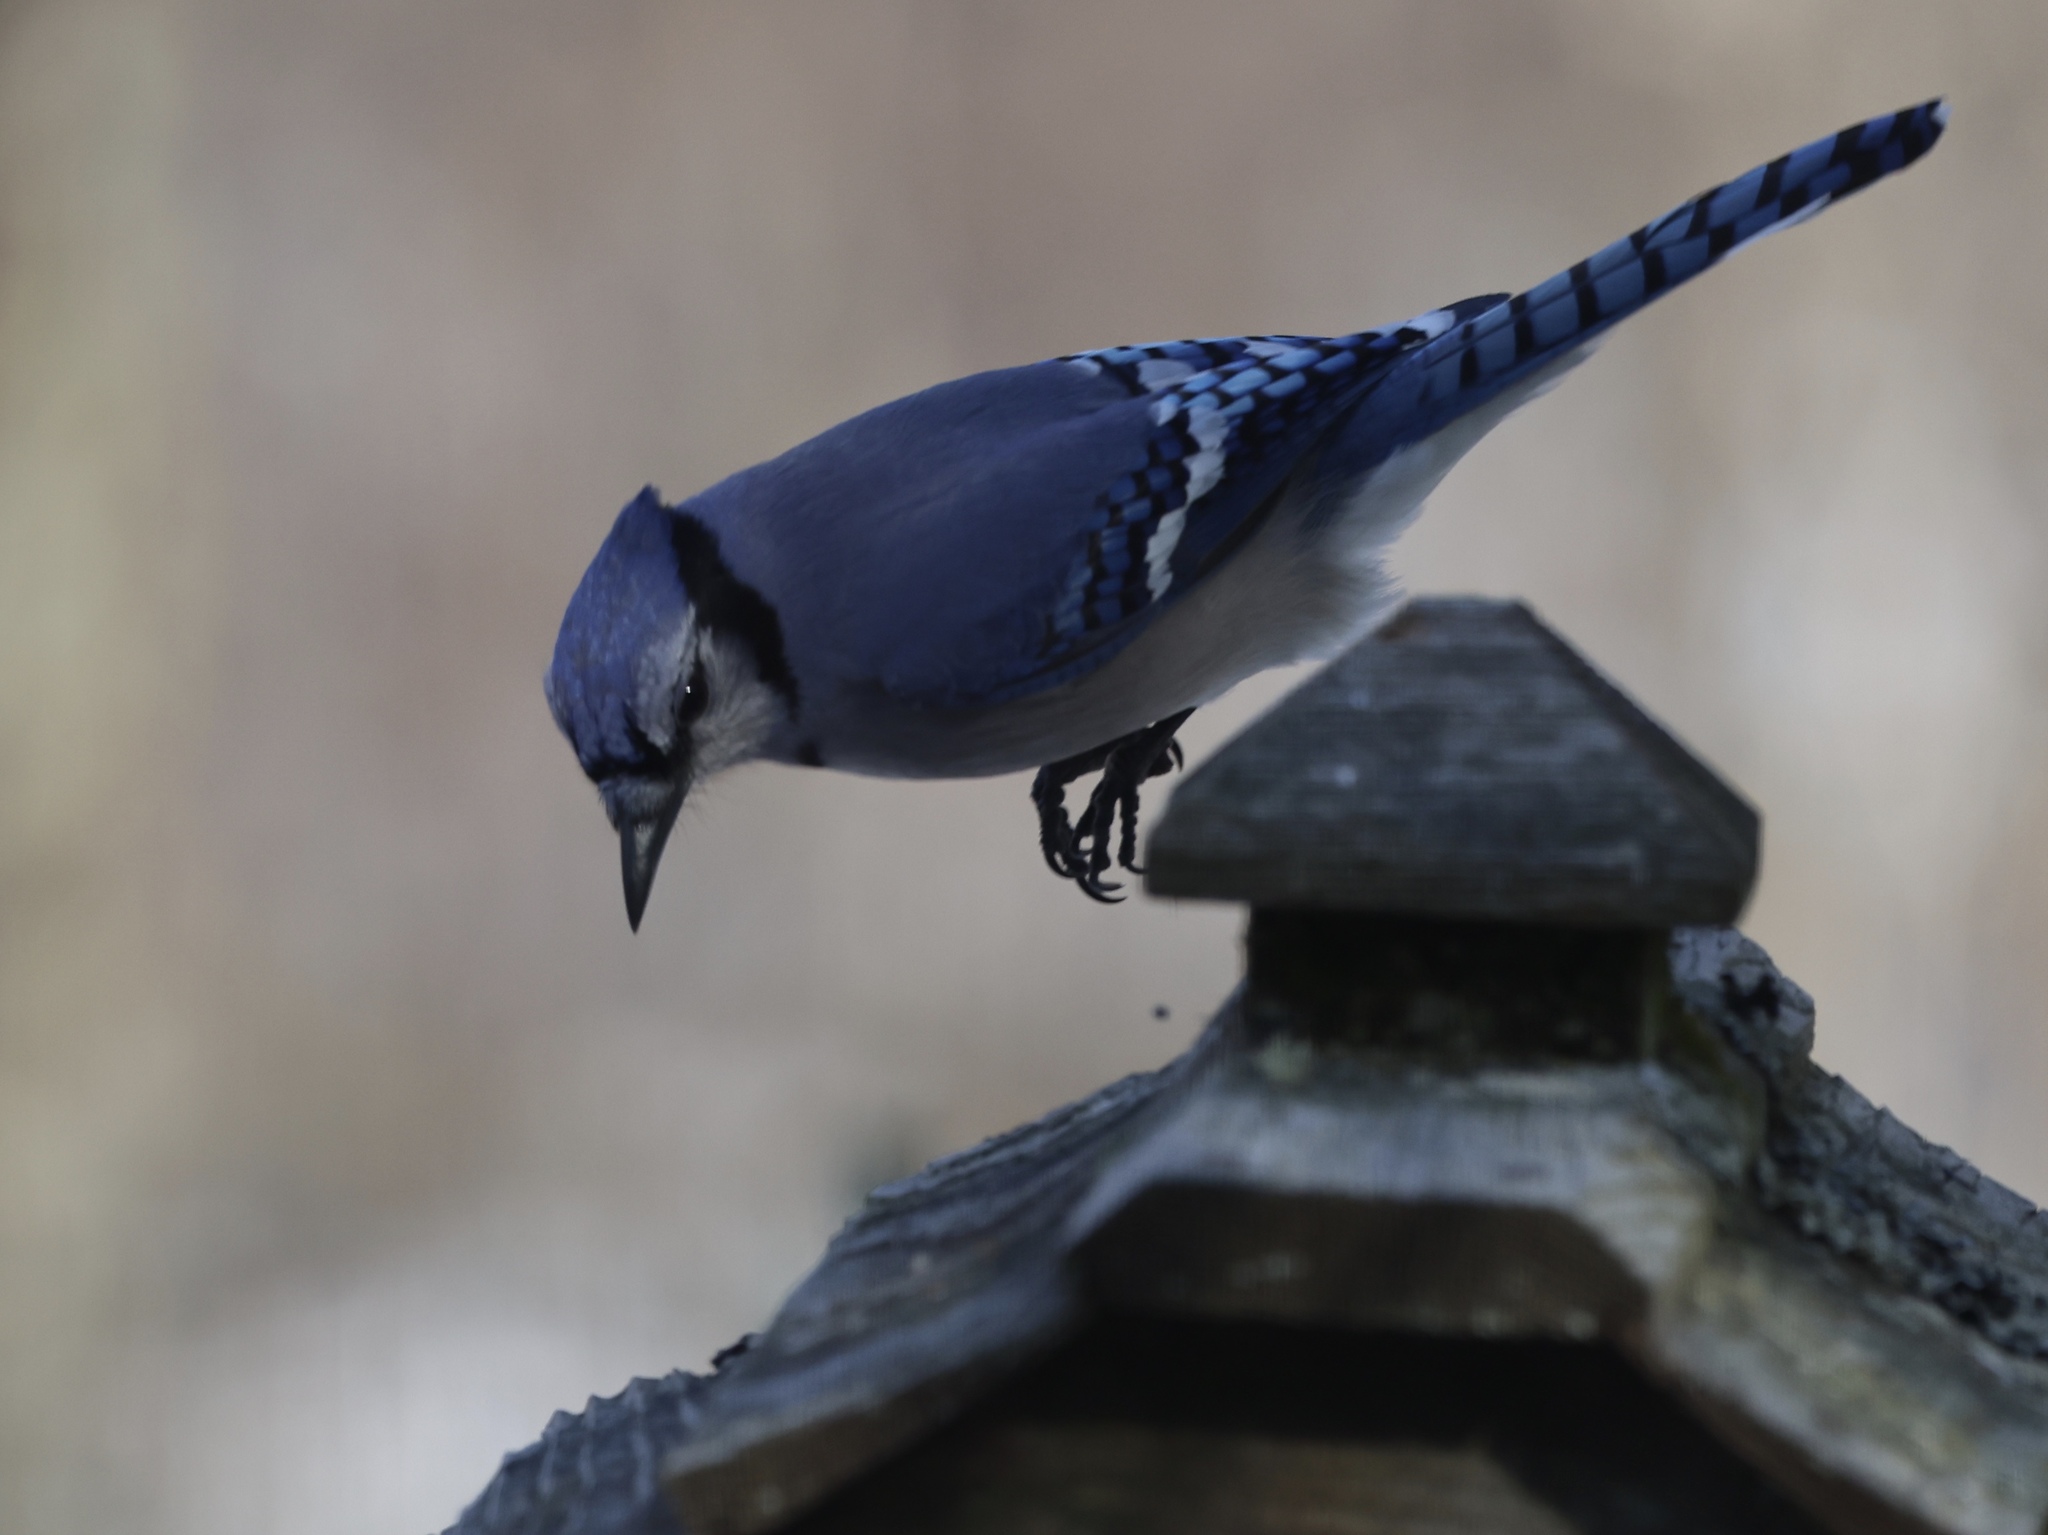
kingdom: Animalia
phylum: Chordata
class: Aves
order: Passeriformes
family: Corvidae
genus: Cyanocitta
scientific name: Cyanocitta cristata
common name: Blue jay
